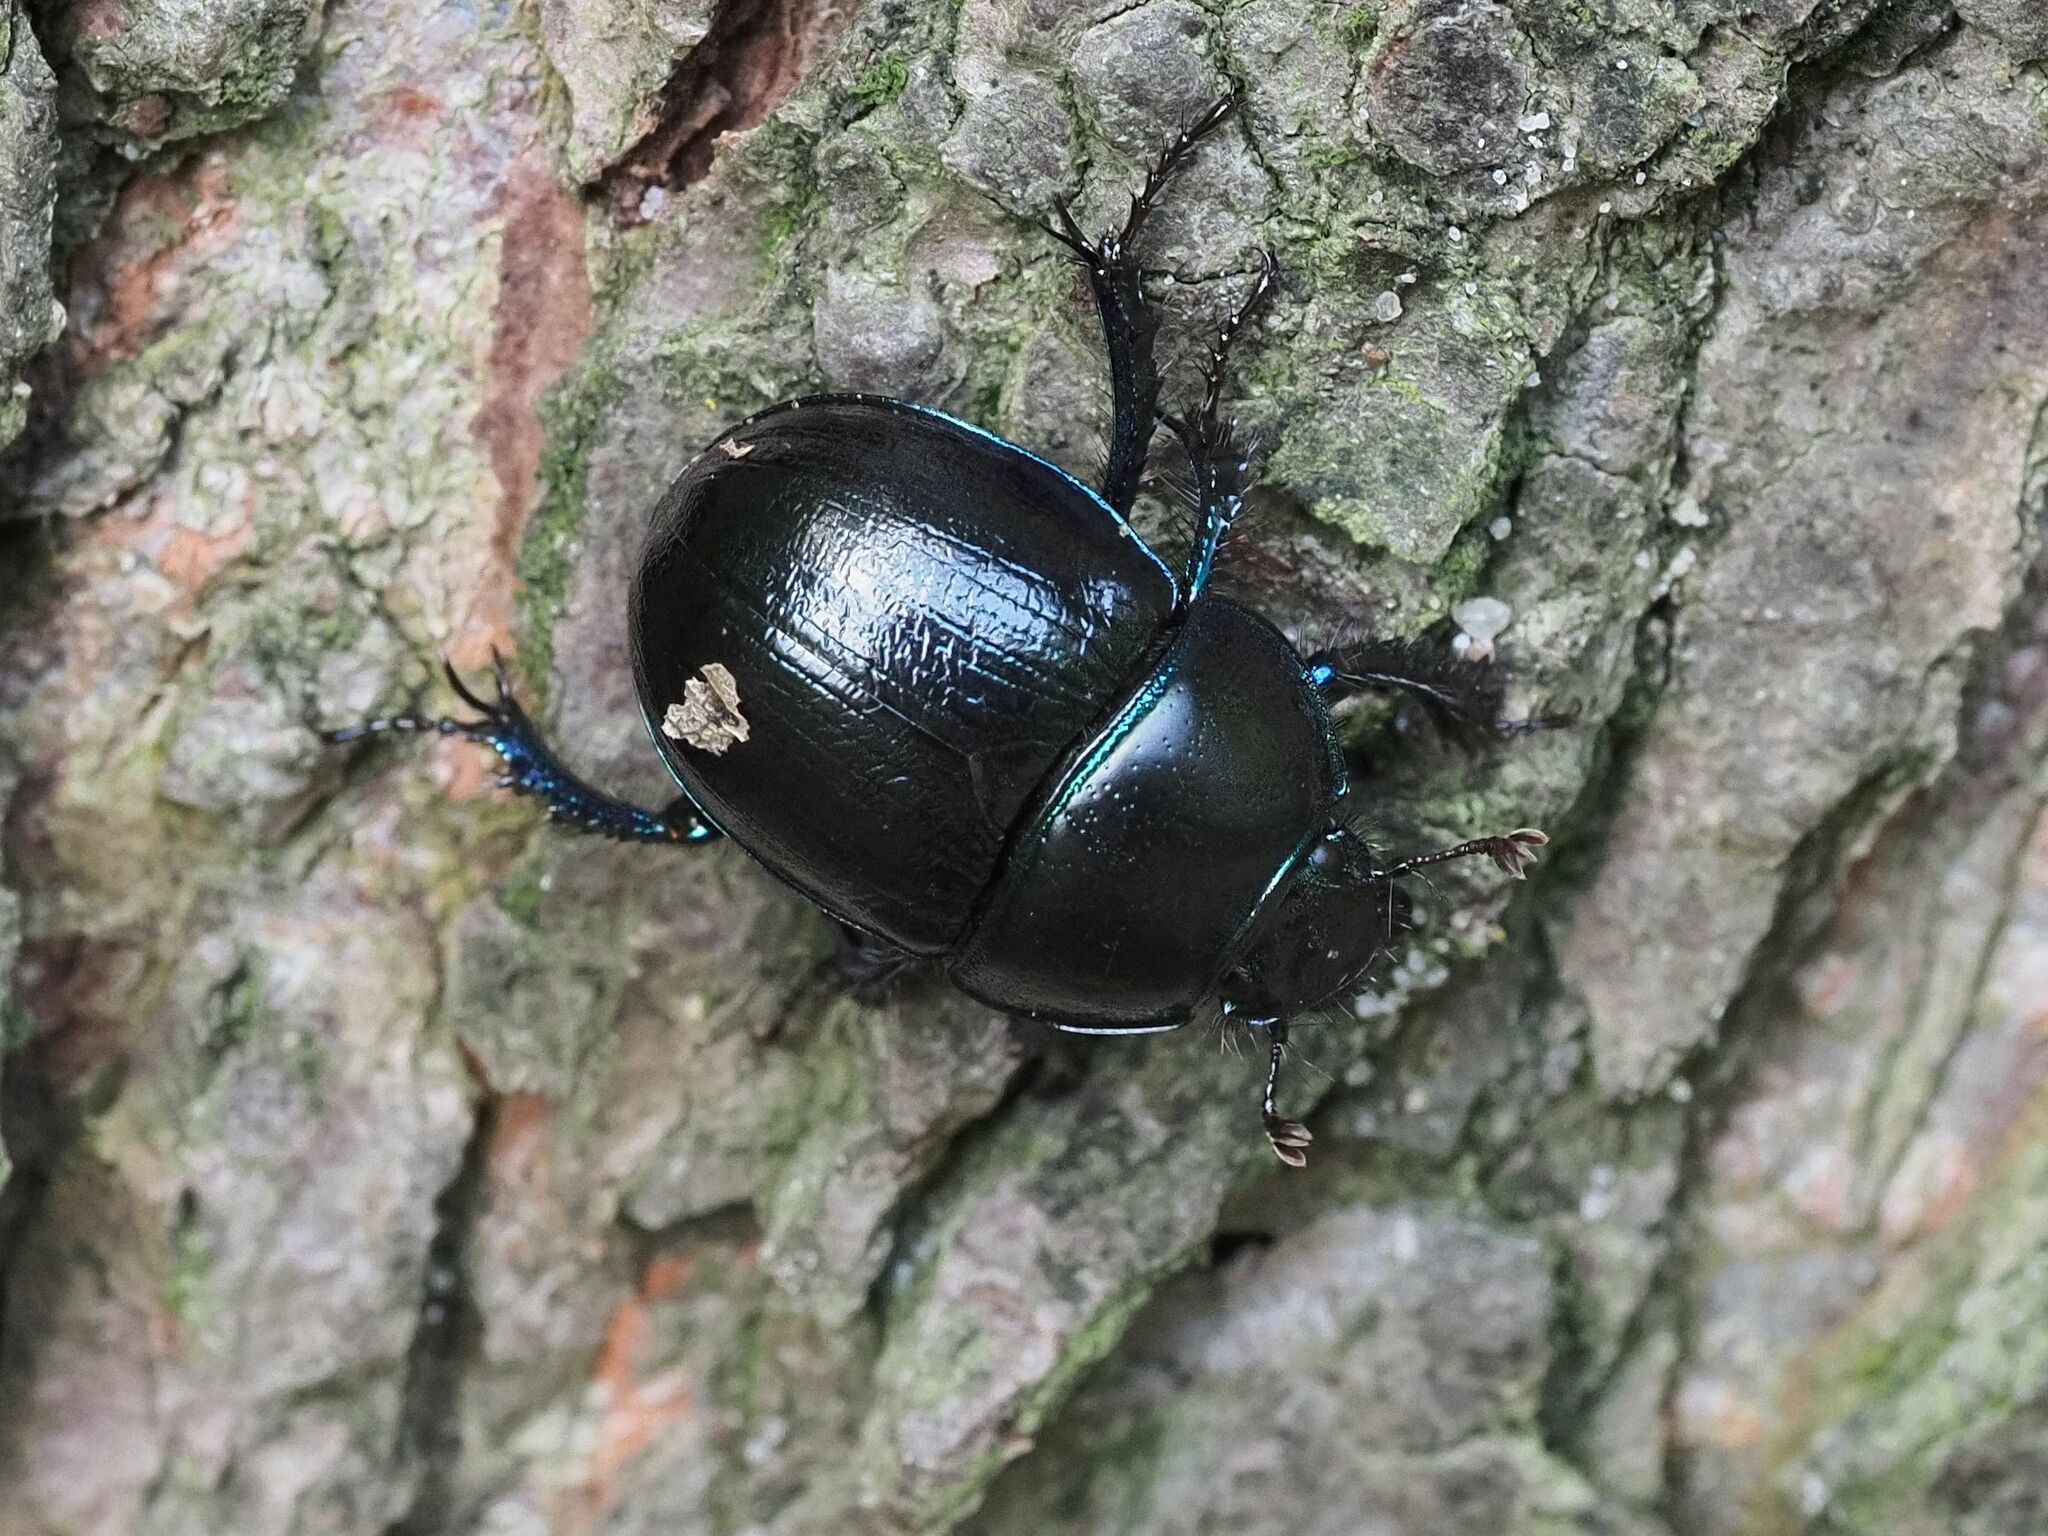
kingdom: Animalia
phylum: Arthropoda
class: Insecta
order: Coleoptera
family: Geotrupidae
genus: Anoplotrupes
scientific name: Anoplotrupes stercorosus
